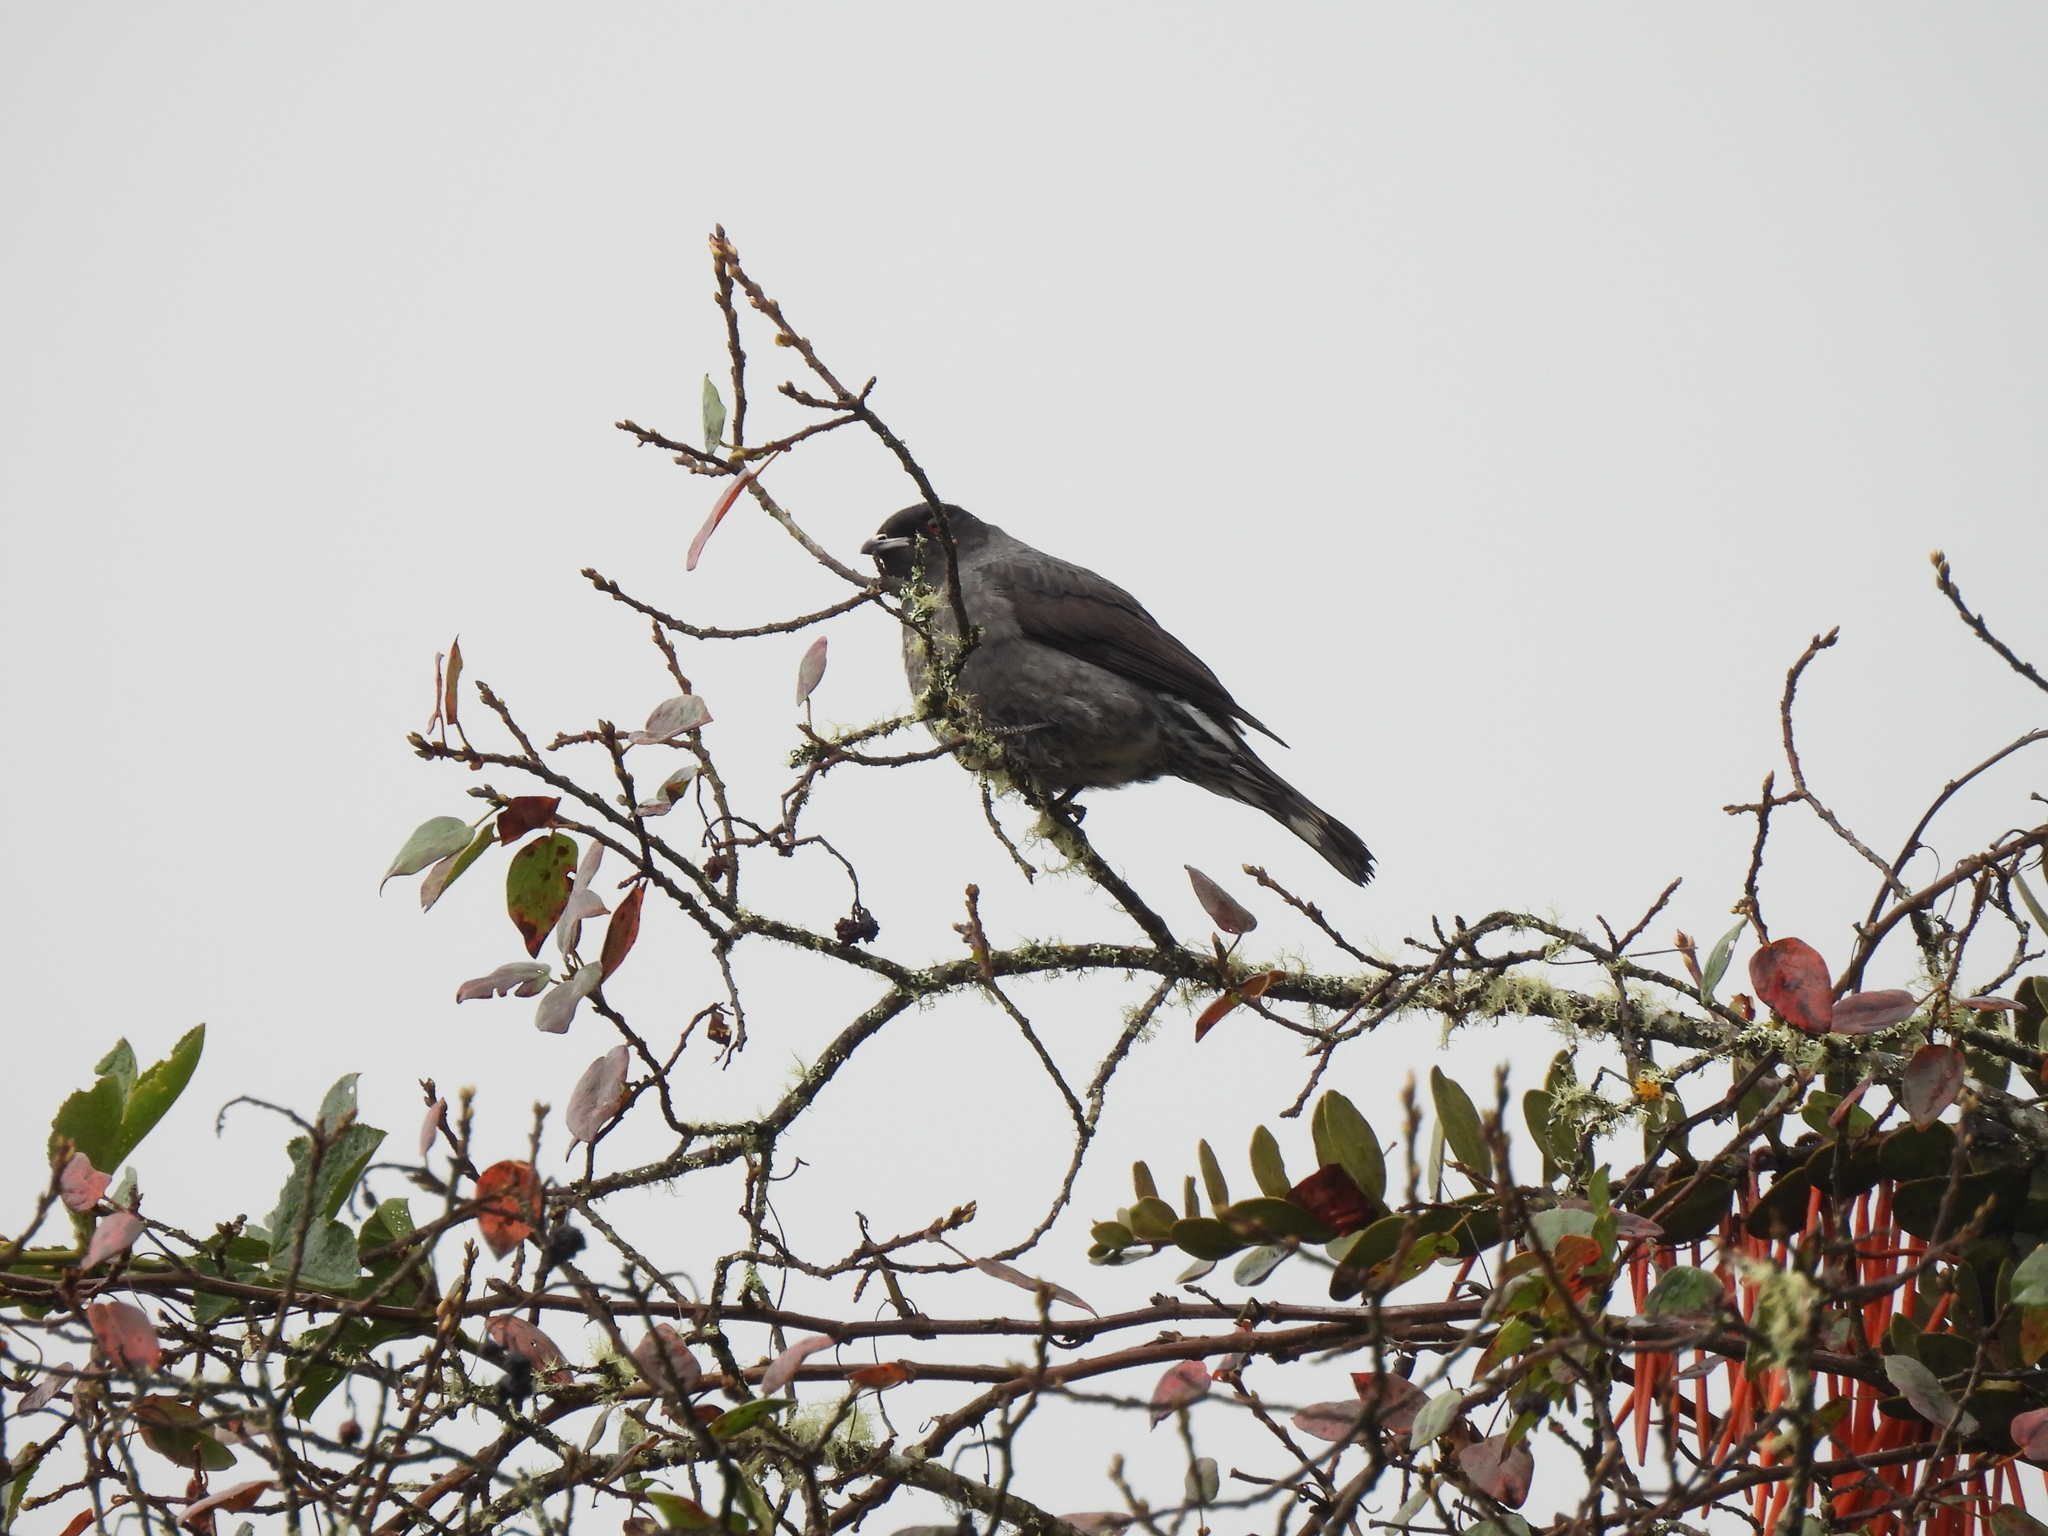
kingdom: Animalia
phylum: Chordata
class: Aves
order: Passeriformes
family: Cotingidae
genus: Ampelion
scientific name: Ampelion rubrocristatus
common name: Red-crested cotinga
